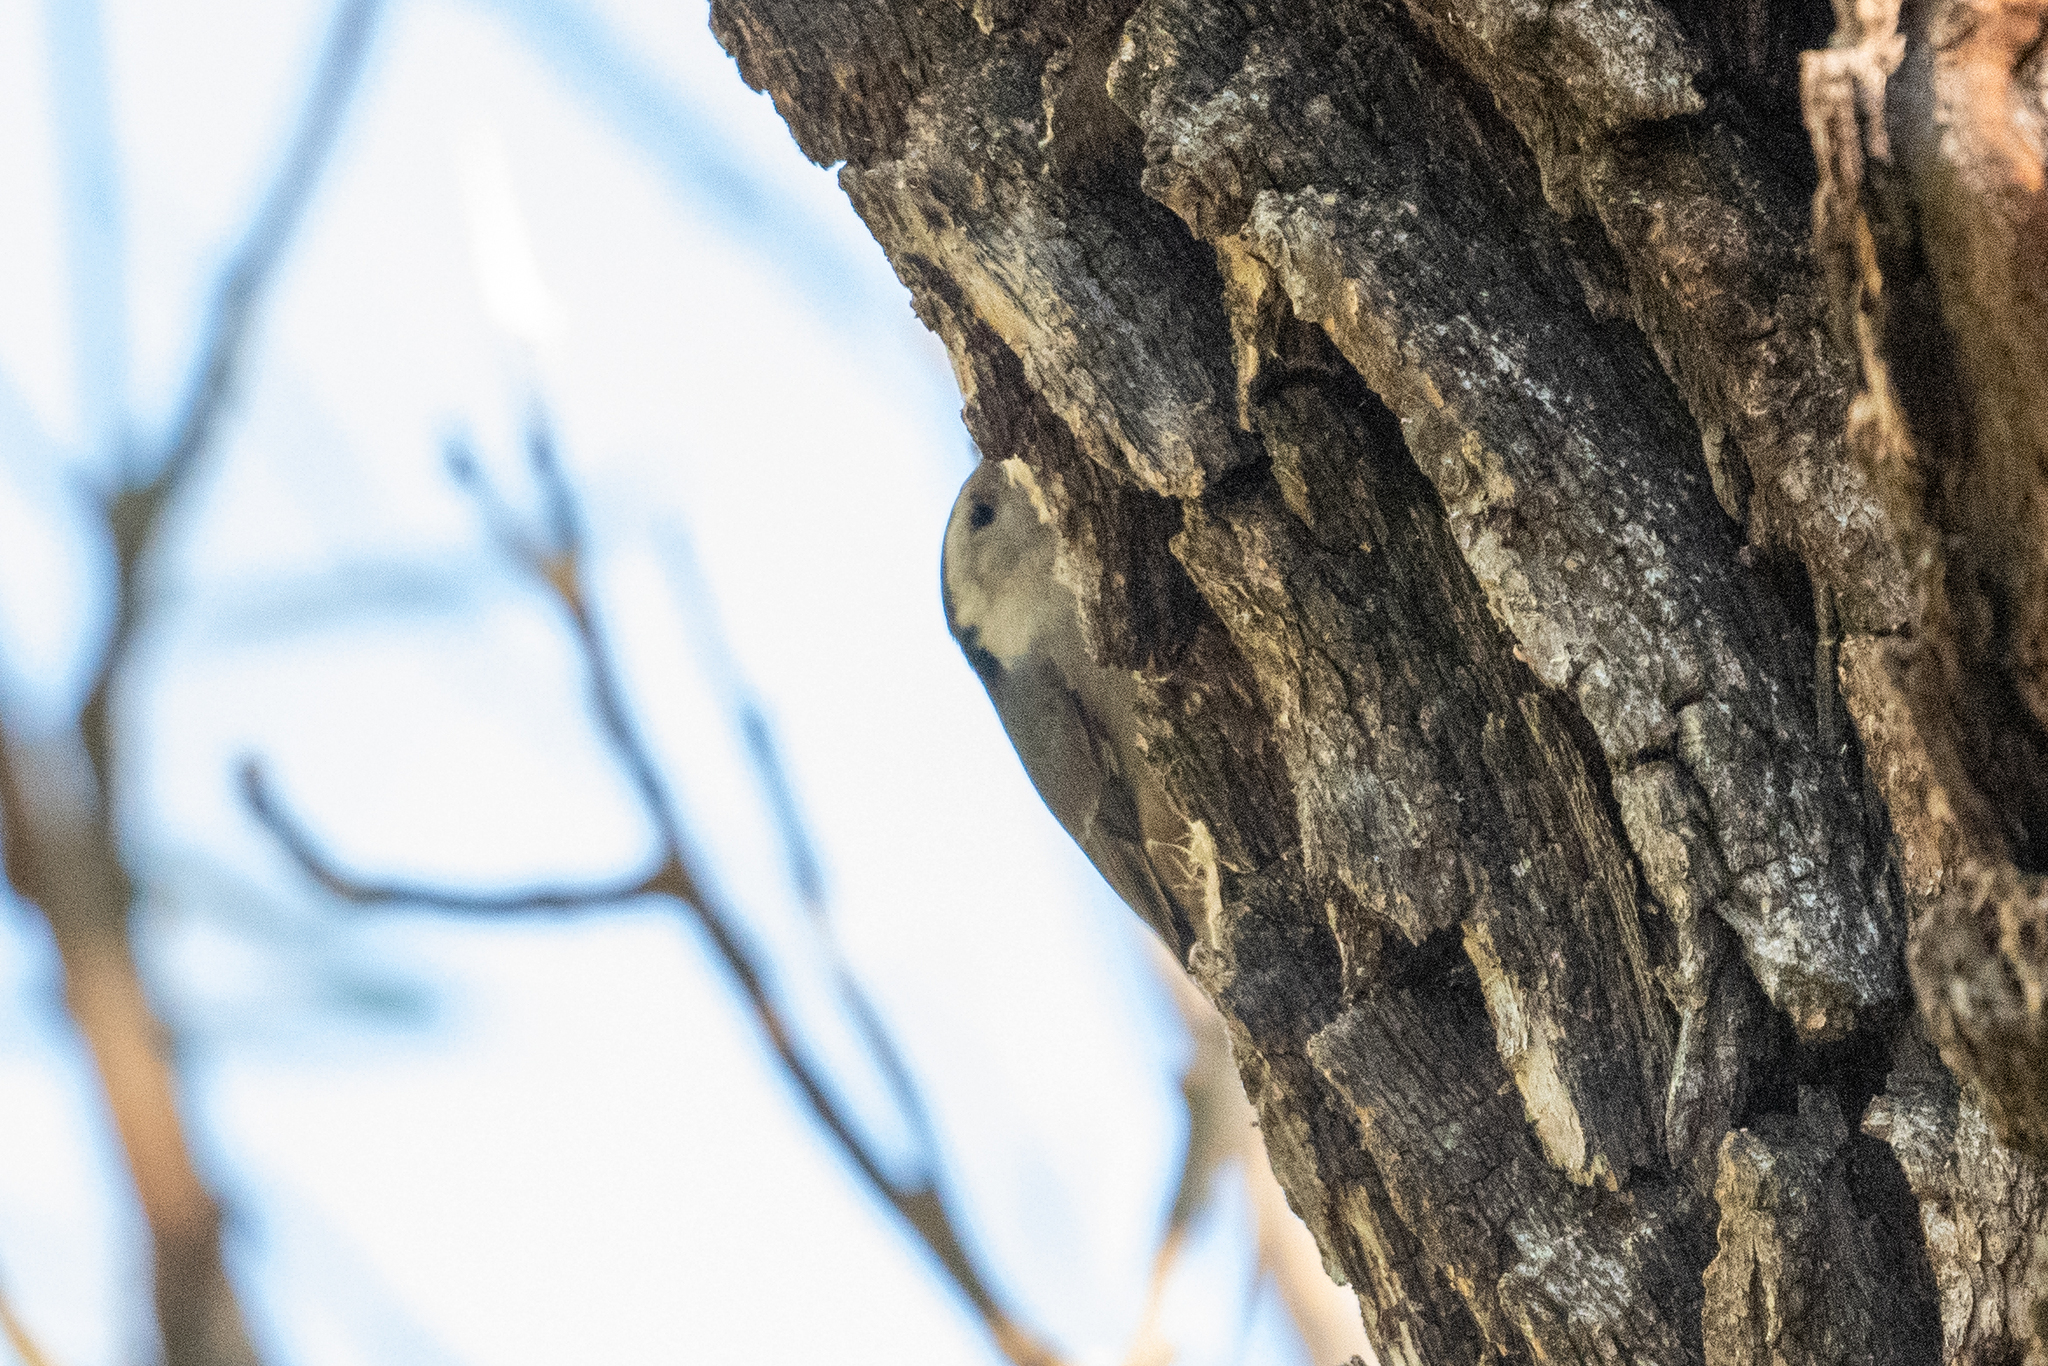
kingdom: Animalia
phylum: Chordata
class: Aves
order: Passeriformes
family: Sittidae
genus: Sitta
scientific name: Sitta carolinensis
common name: White-breasted nuthatch
